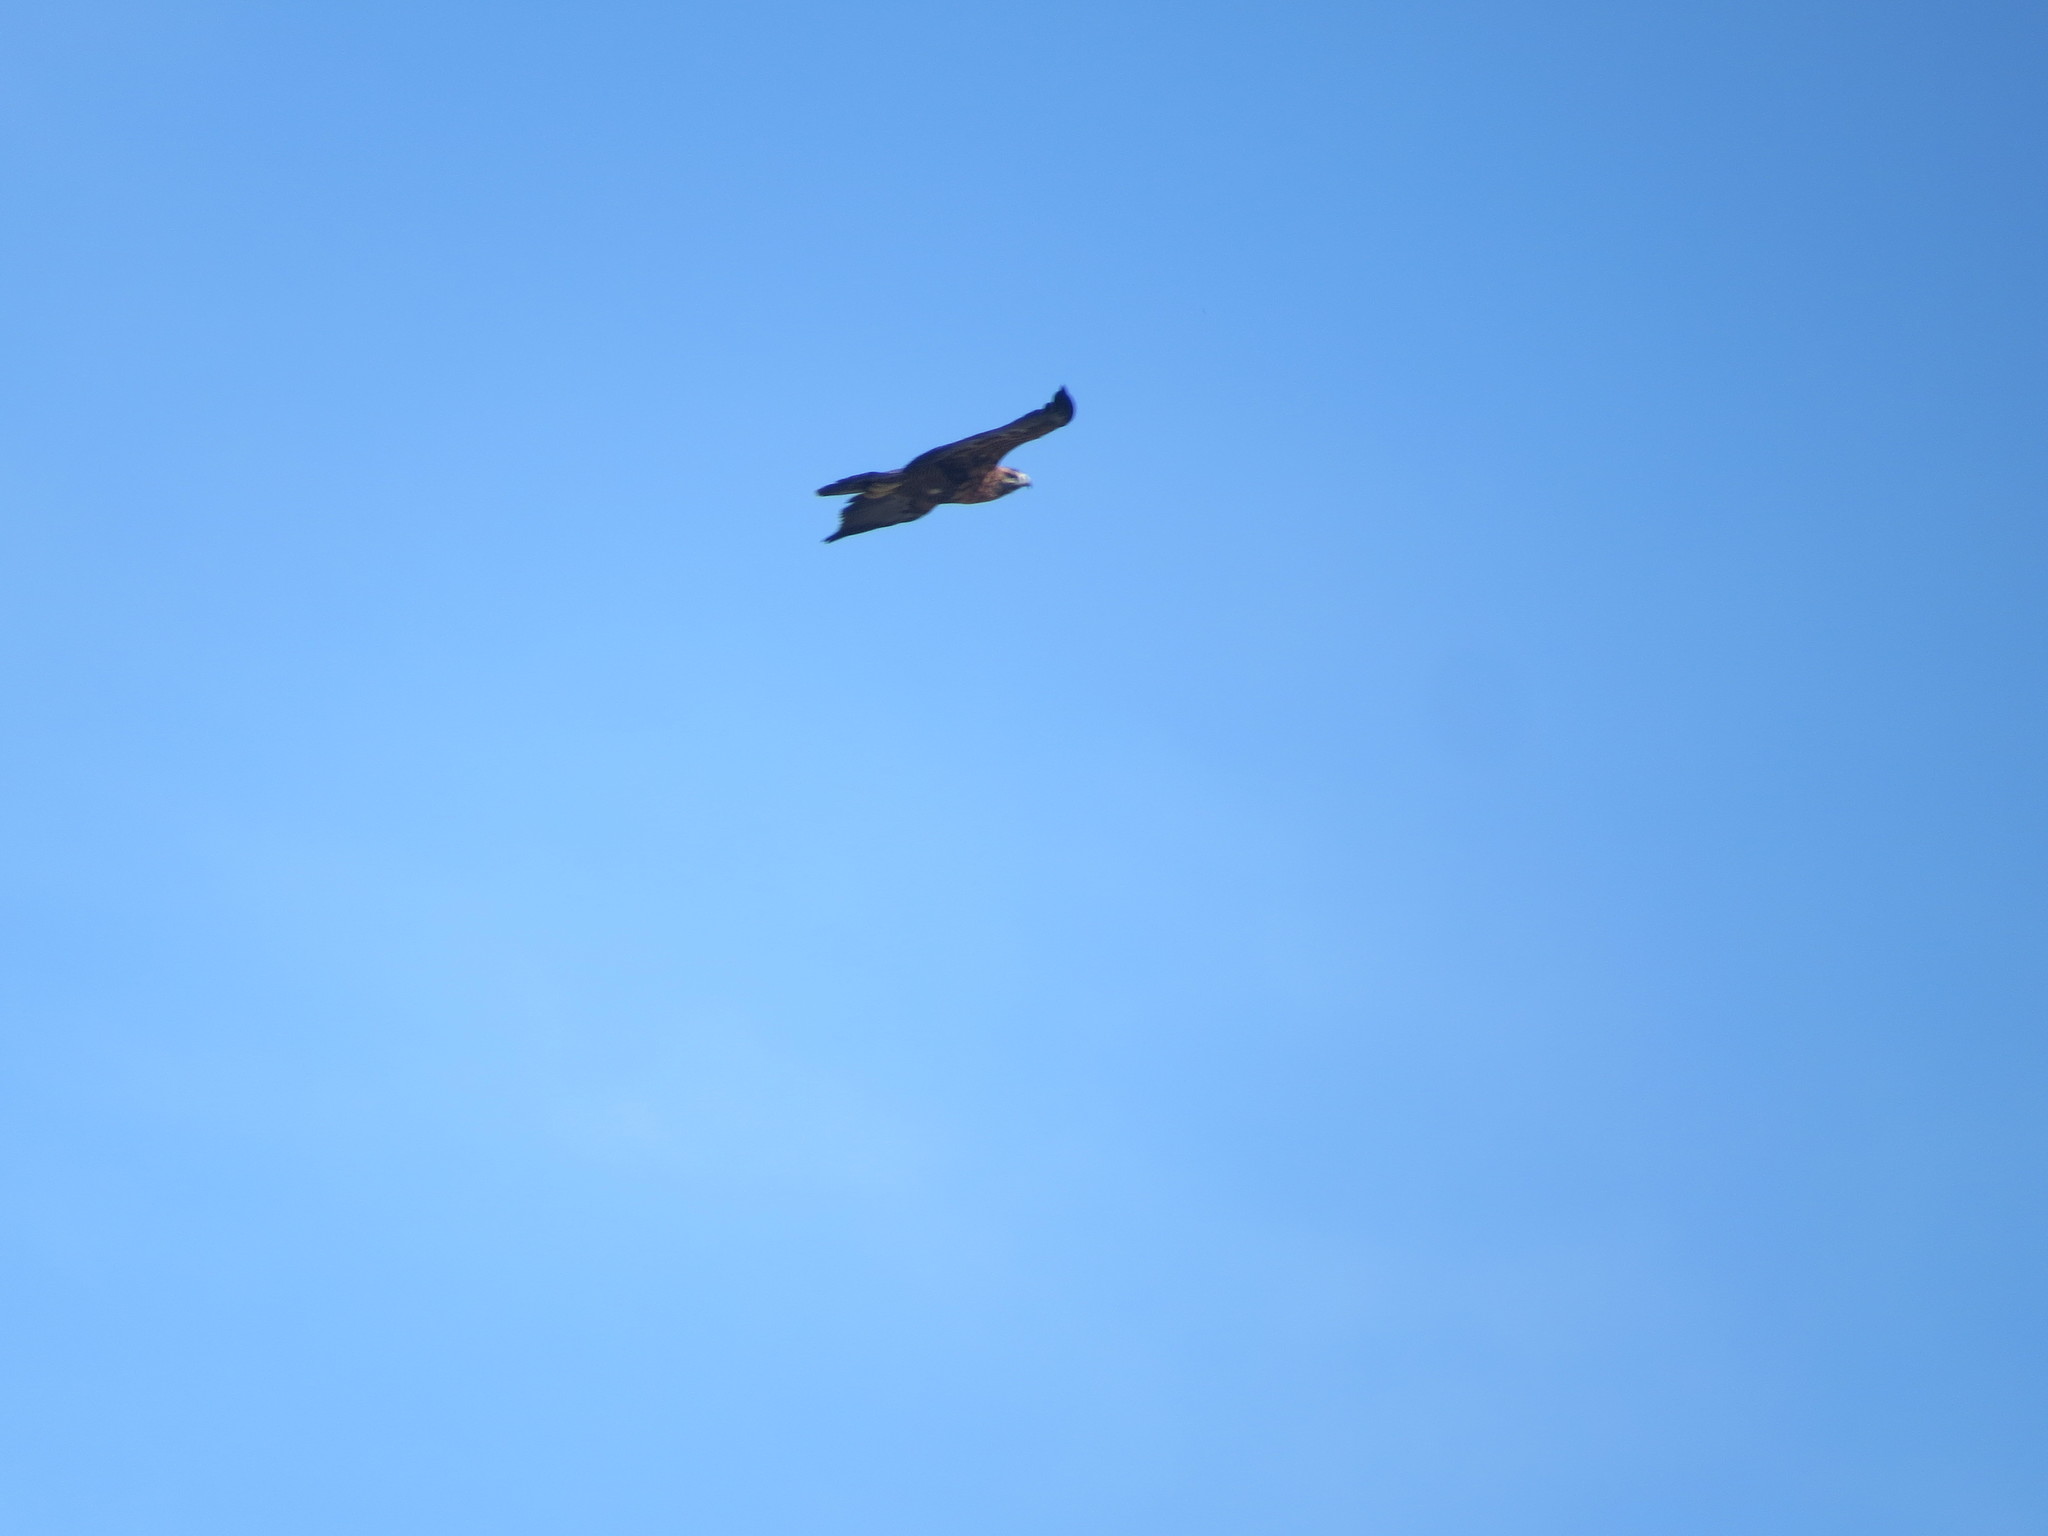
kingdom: Animalia
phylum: Chordata
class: Aves
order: Accipitriformes
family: Accipitridae
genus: Geranoaetus
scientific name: Geranoaetus melanoleucus
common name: Black-chested buzzard-eagle
